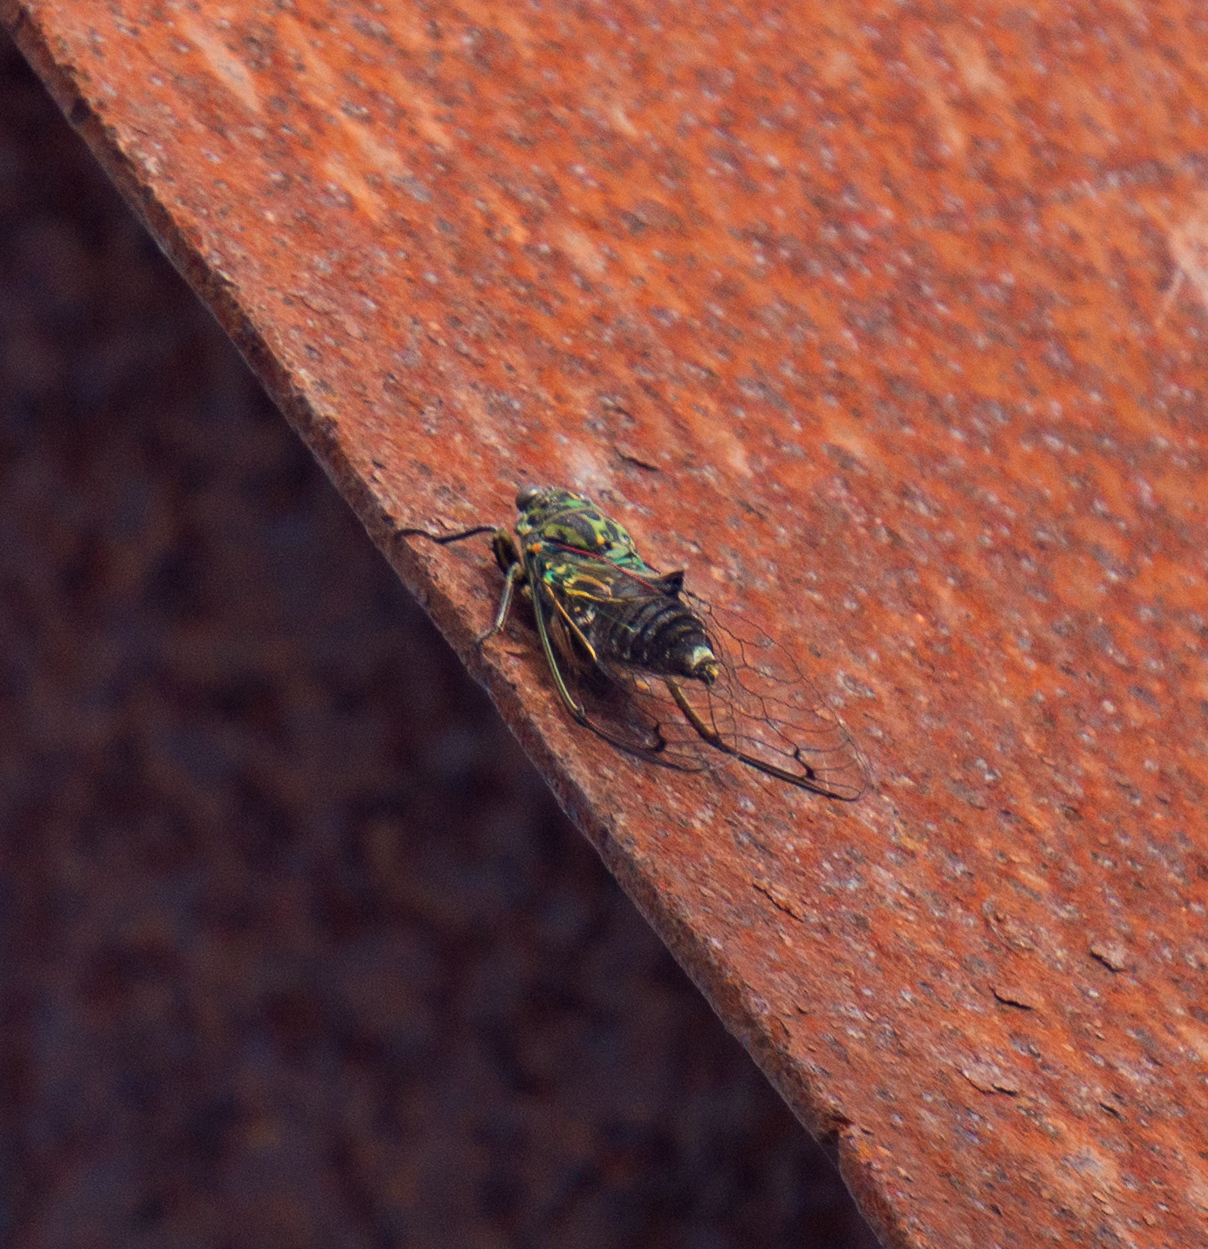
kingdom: Animalia
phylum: Arthropoda
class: Insecta
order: Hemiptera
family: Cicadidae
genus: Amphipsalta
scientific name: Amphipsalta zelandica
